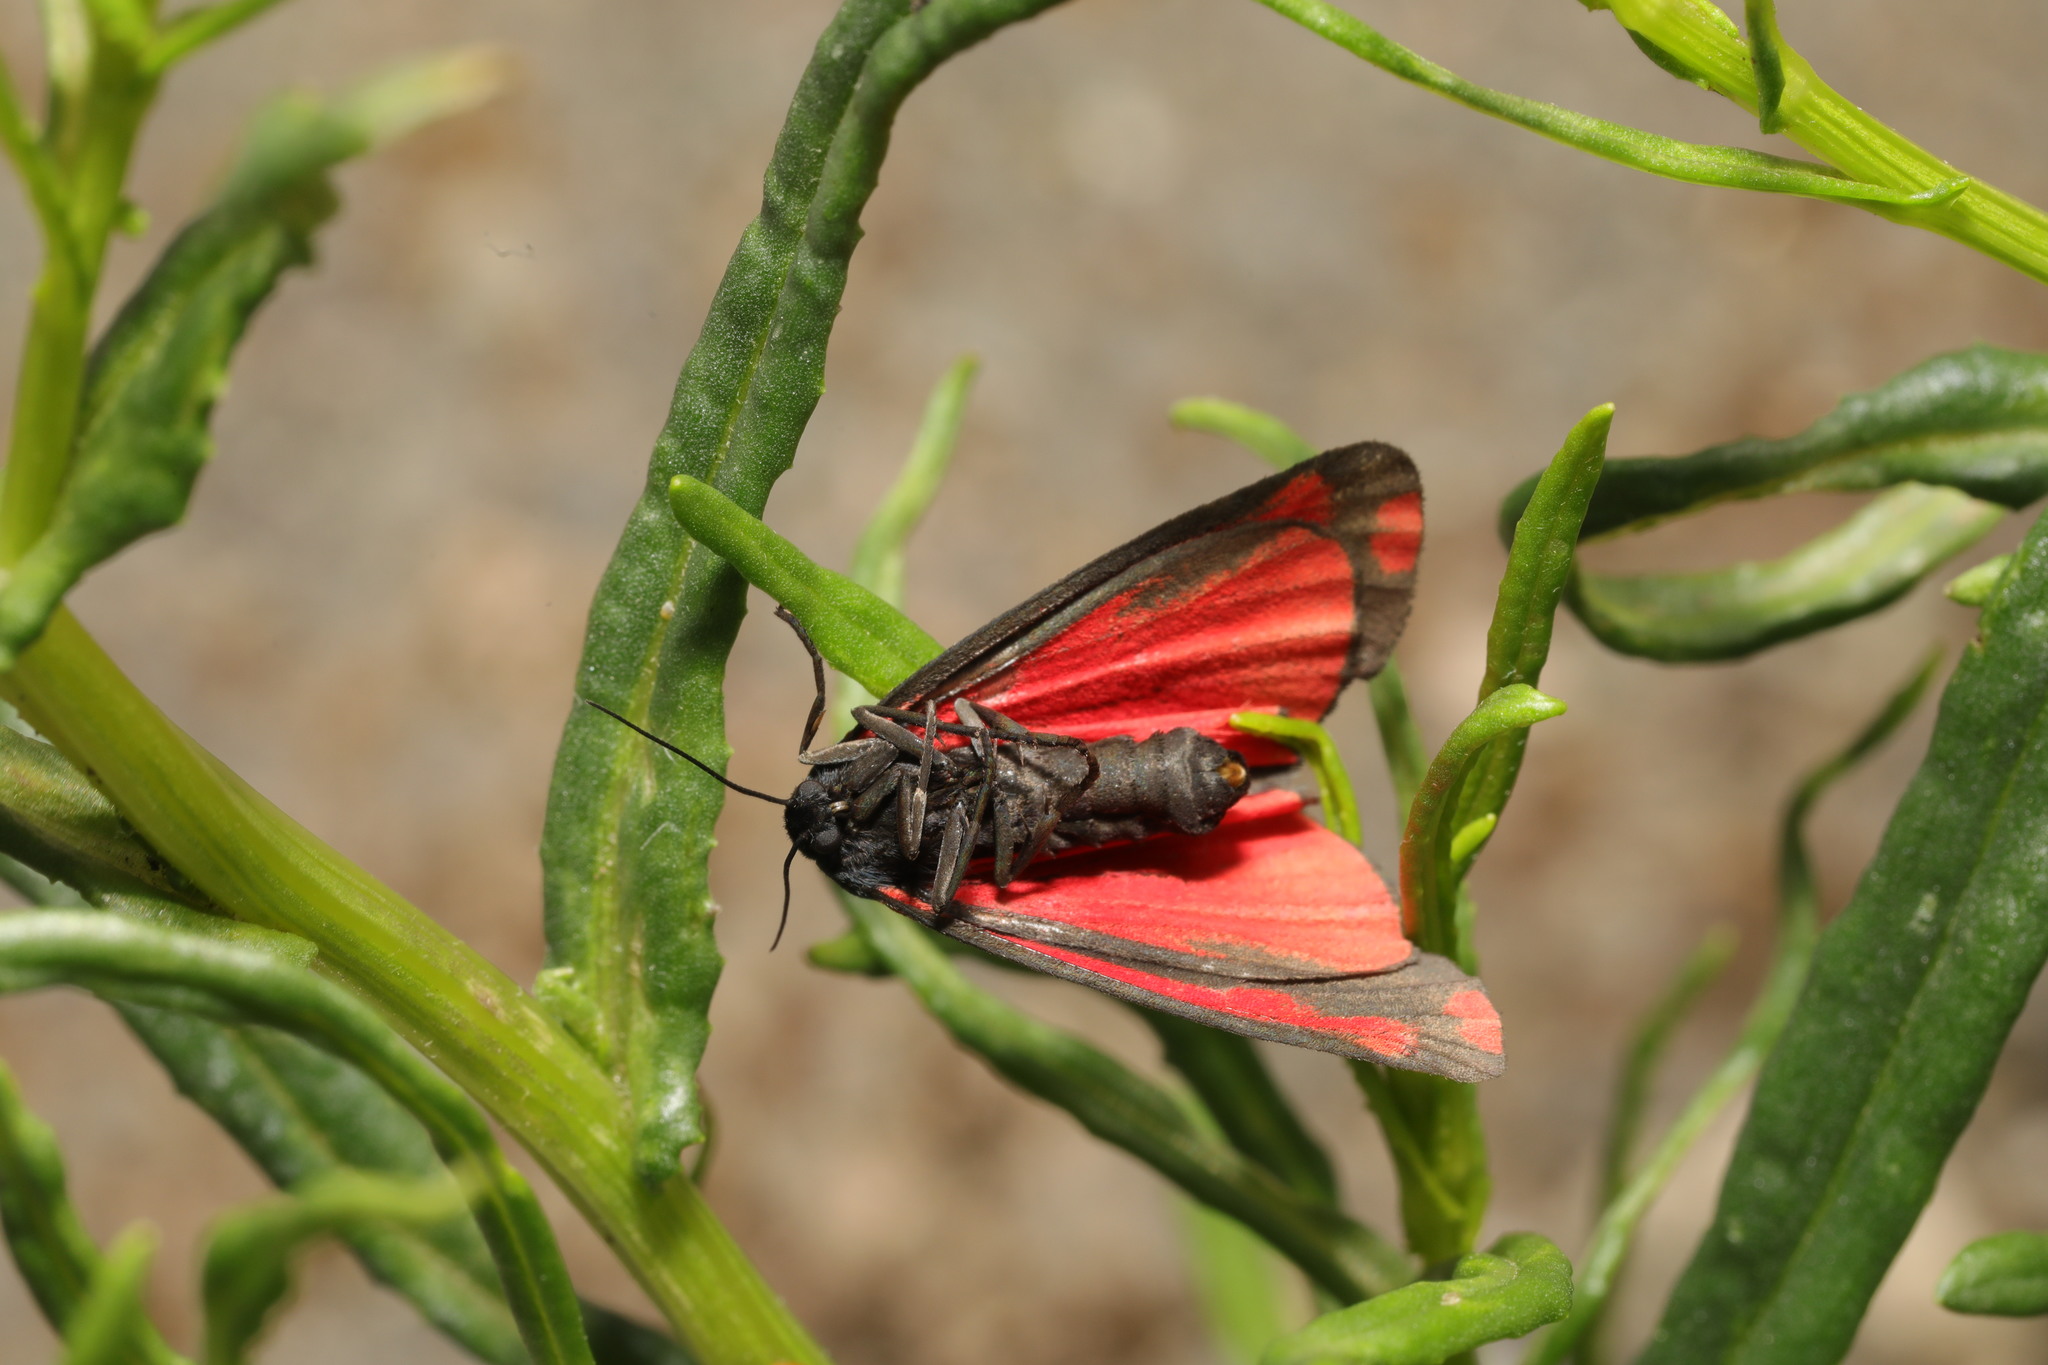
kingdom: Animalia
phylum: Arthropoda
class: Insecta
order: Lepidoptera
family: Erebidae
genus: Tyria
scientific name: Tyria jacobaeae
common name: Cinnabar
